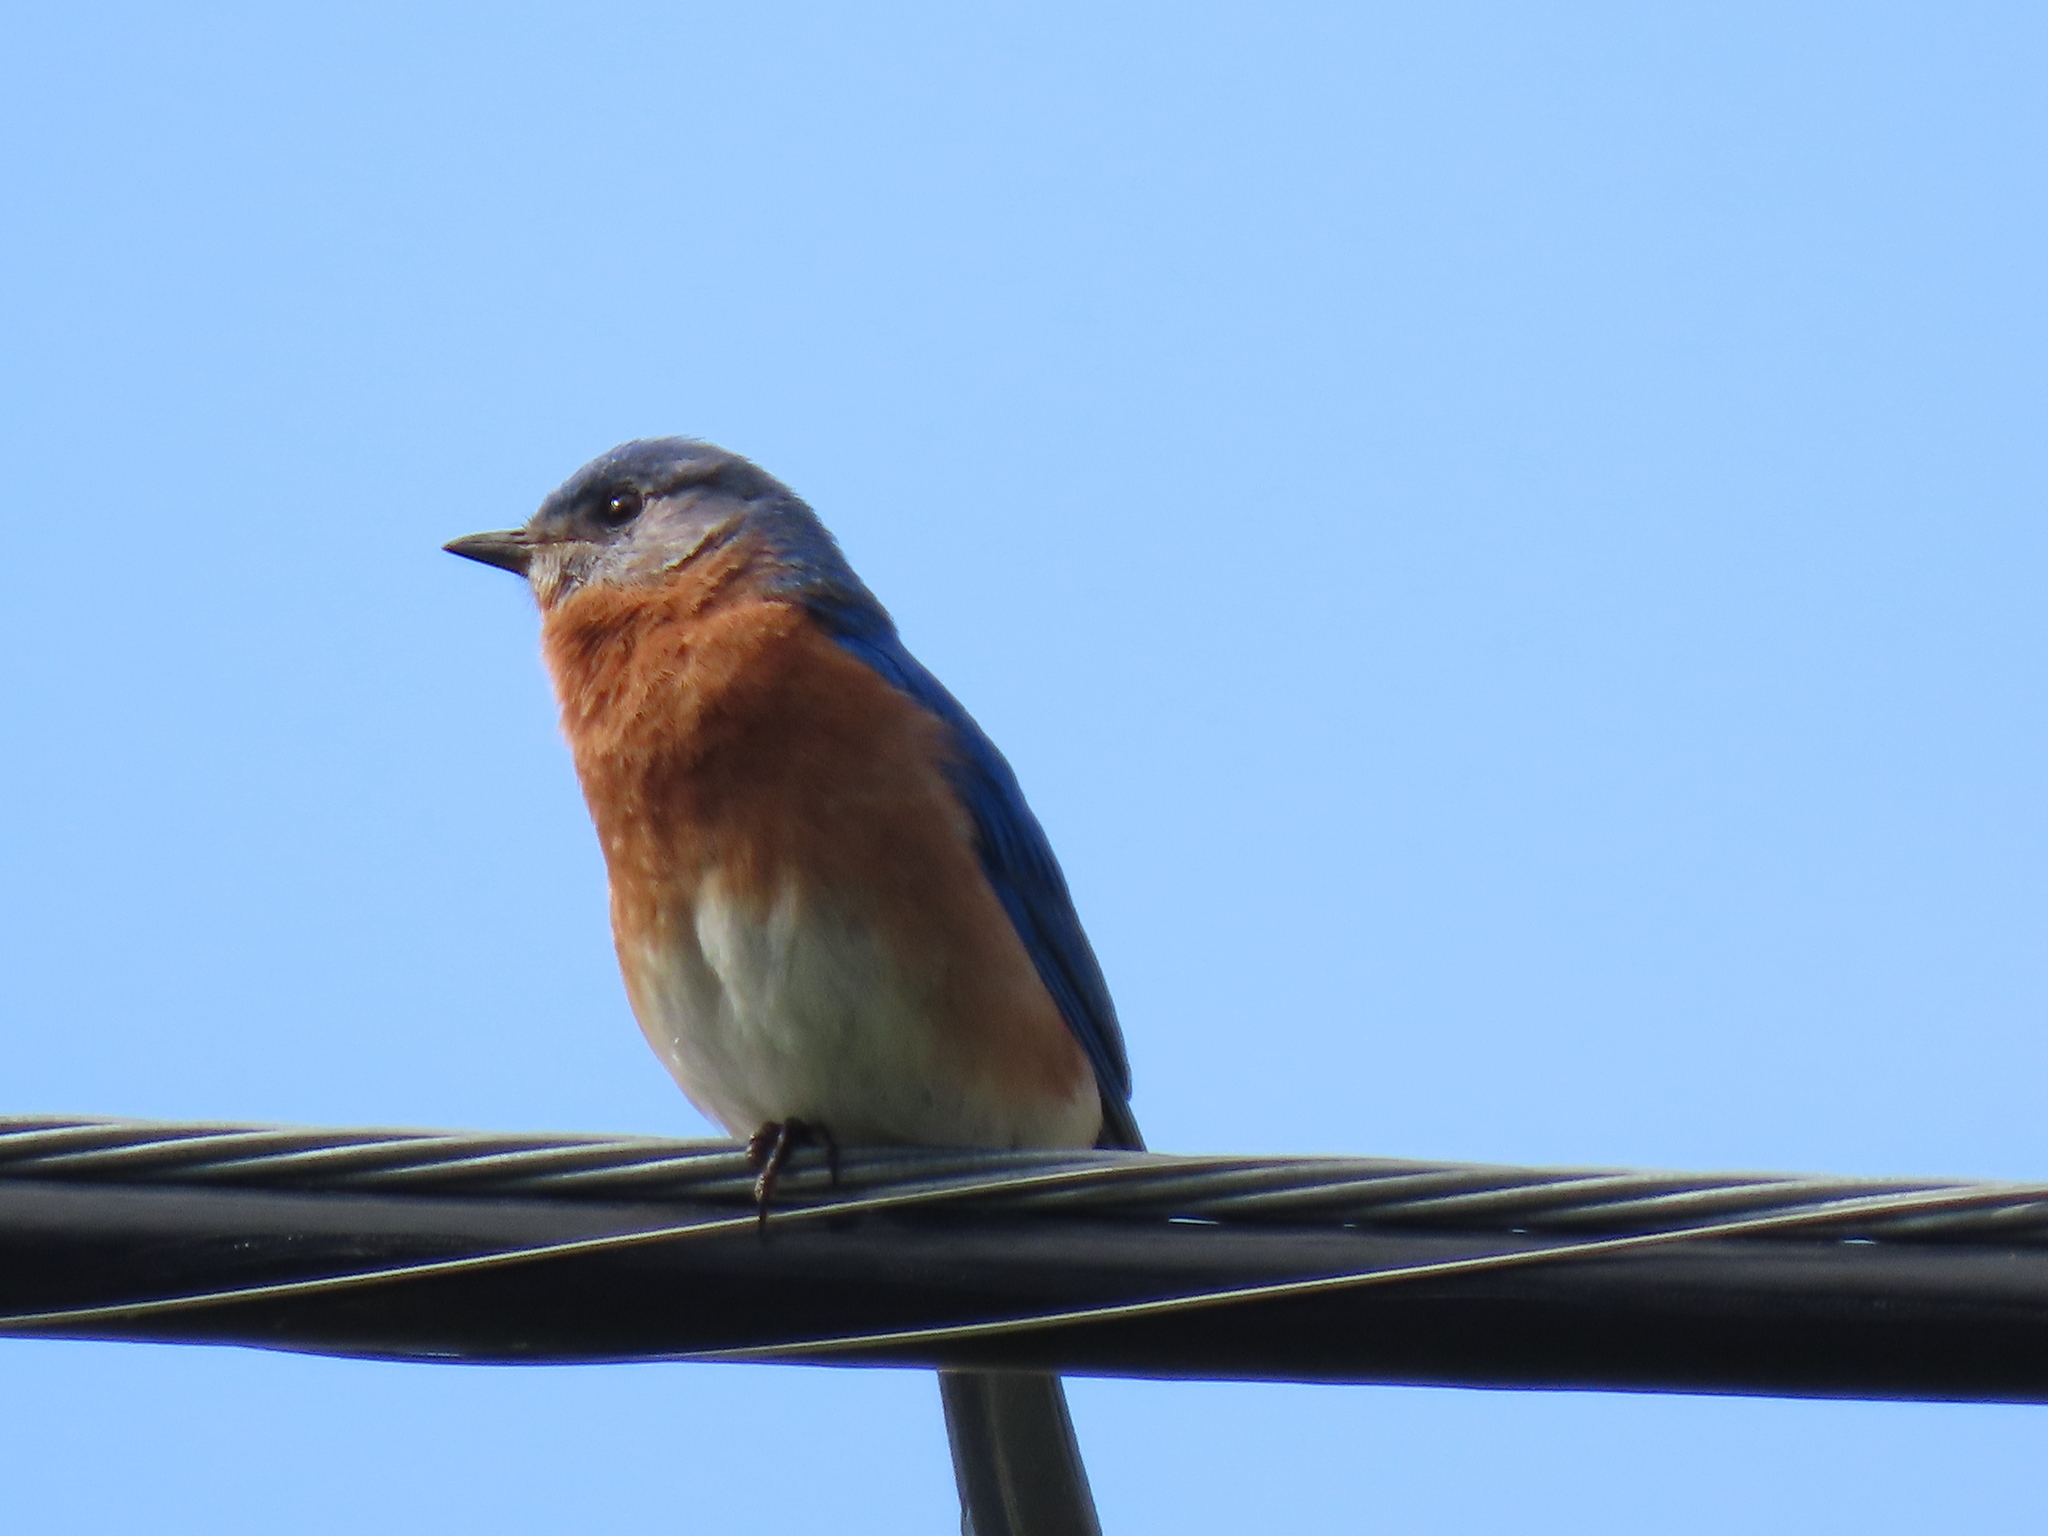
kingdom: Animalia
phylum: Chordata
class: Aves
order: Passeriformes
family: Turdidae
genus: Sialia
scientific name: Sialia sialis
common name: Eastern bluebird
